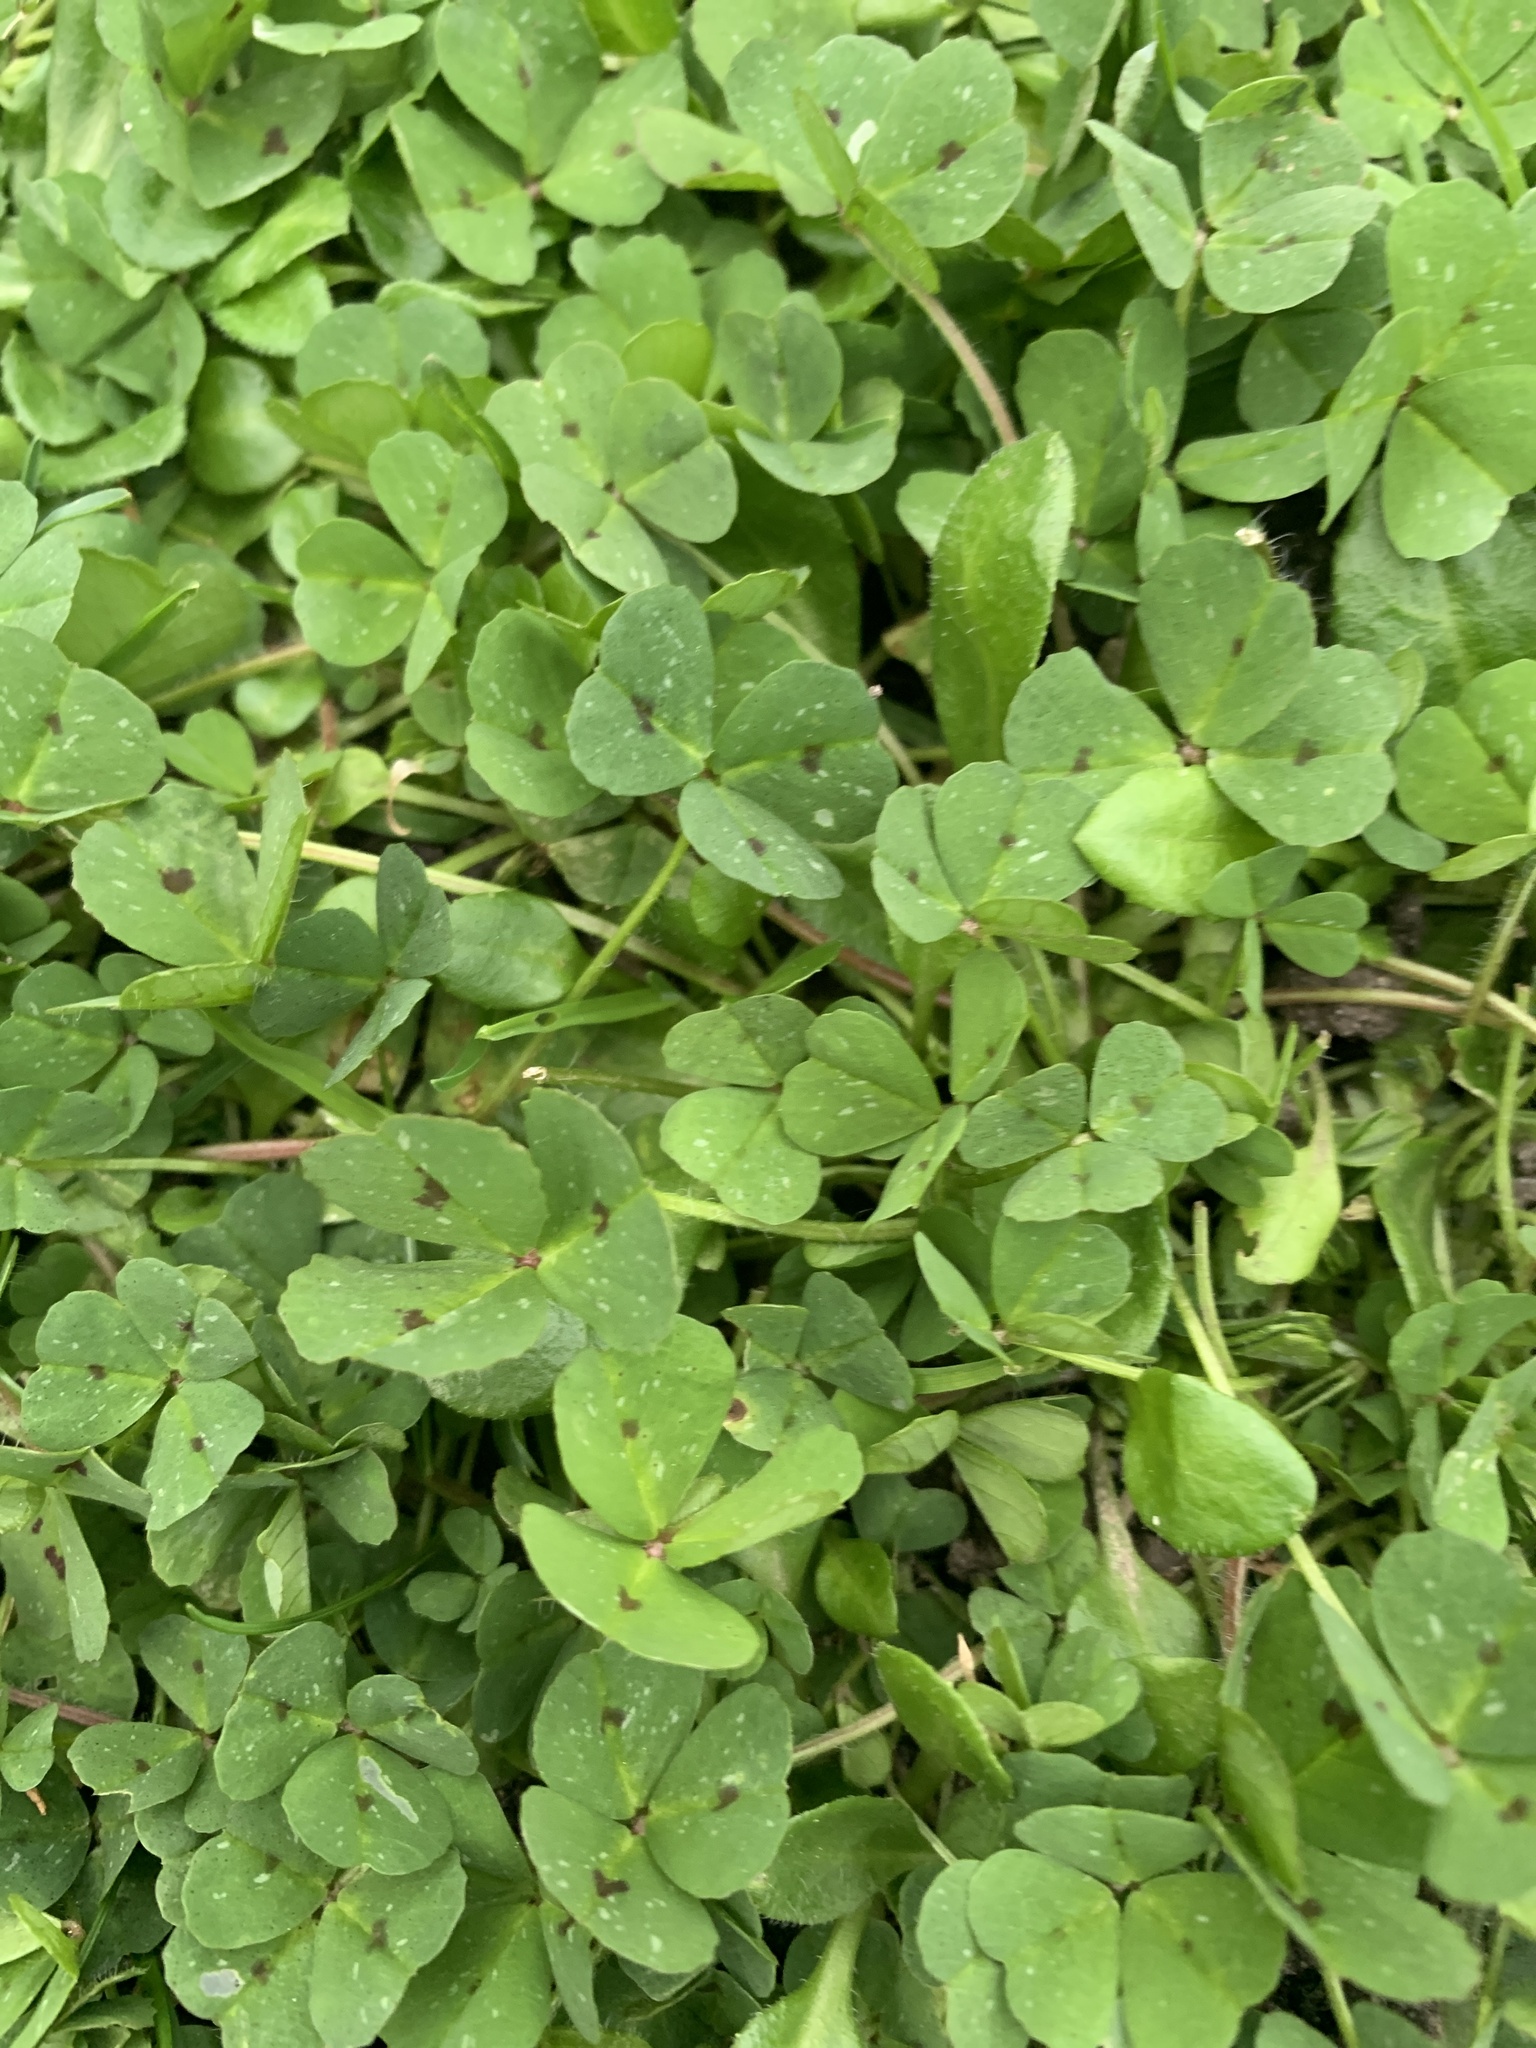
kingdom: Plantae
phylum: Tracheophyta
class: Magnoliopsida
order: Fabales
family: Fabaceae
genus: Medicago
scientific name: Medicago arabica
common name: Spotted medick
